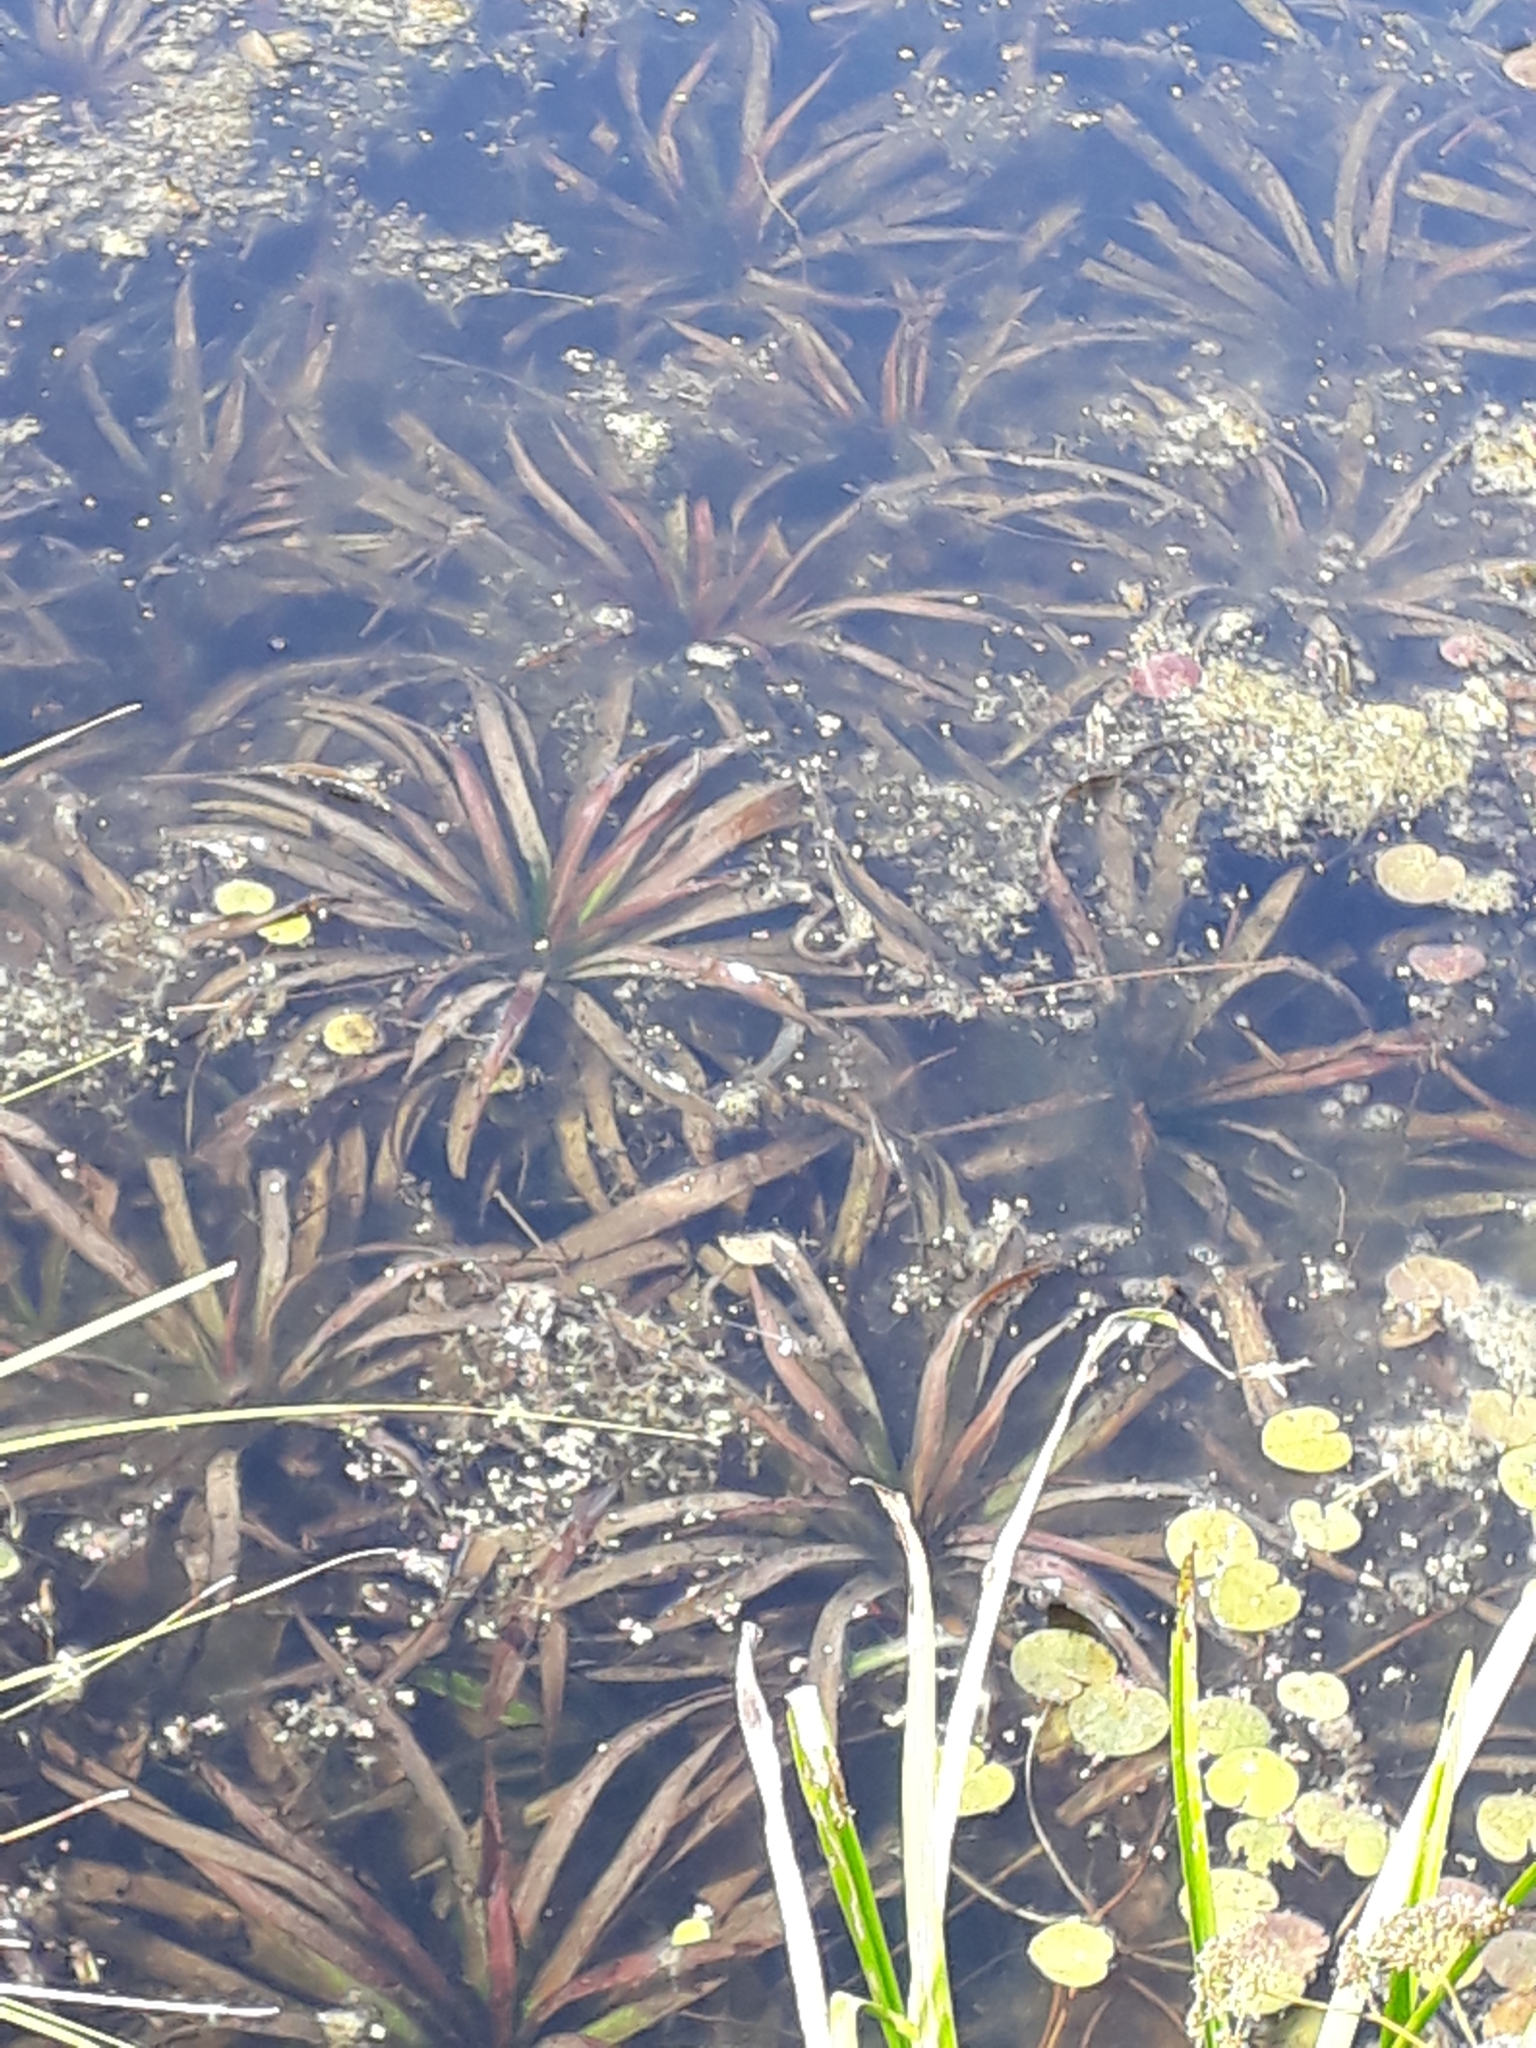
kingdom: Plantae
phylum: Tracheophyta
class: Liliopsida
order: Alismatales
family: Hydrocharitaceae
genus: Stratiotes
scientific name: Stratiotes aloides
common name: Water-soldier
